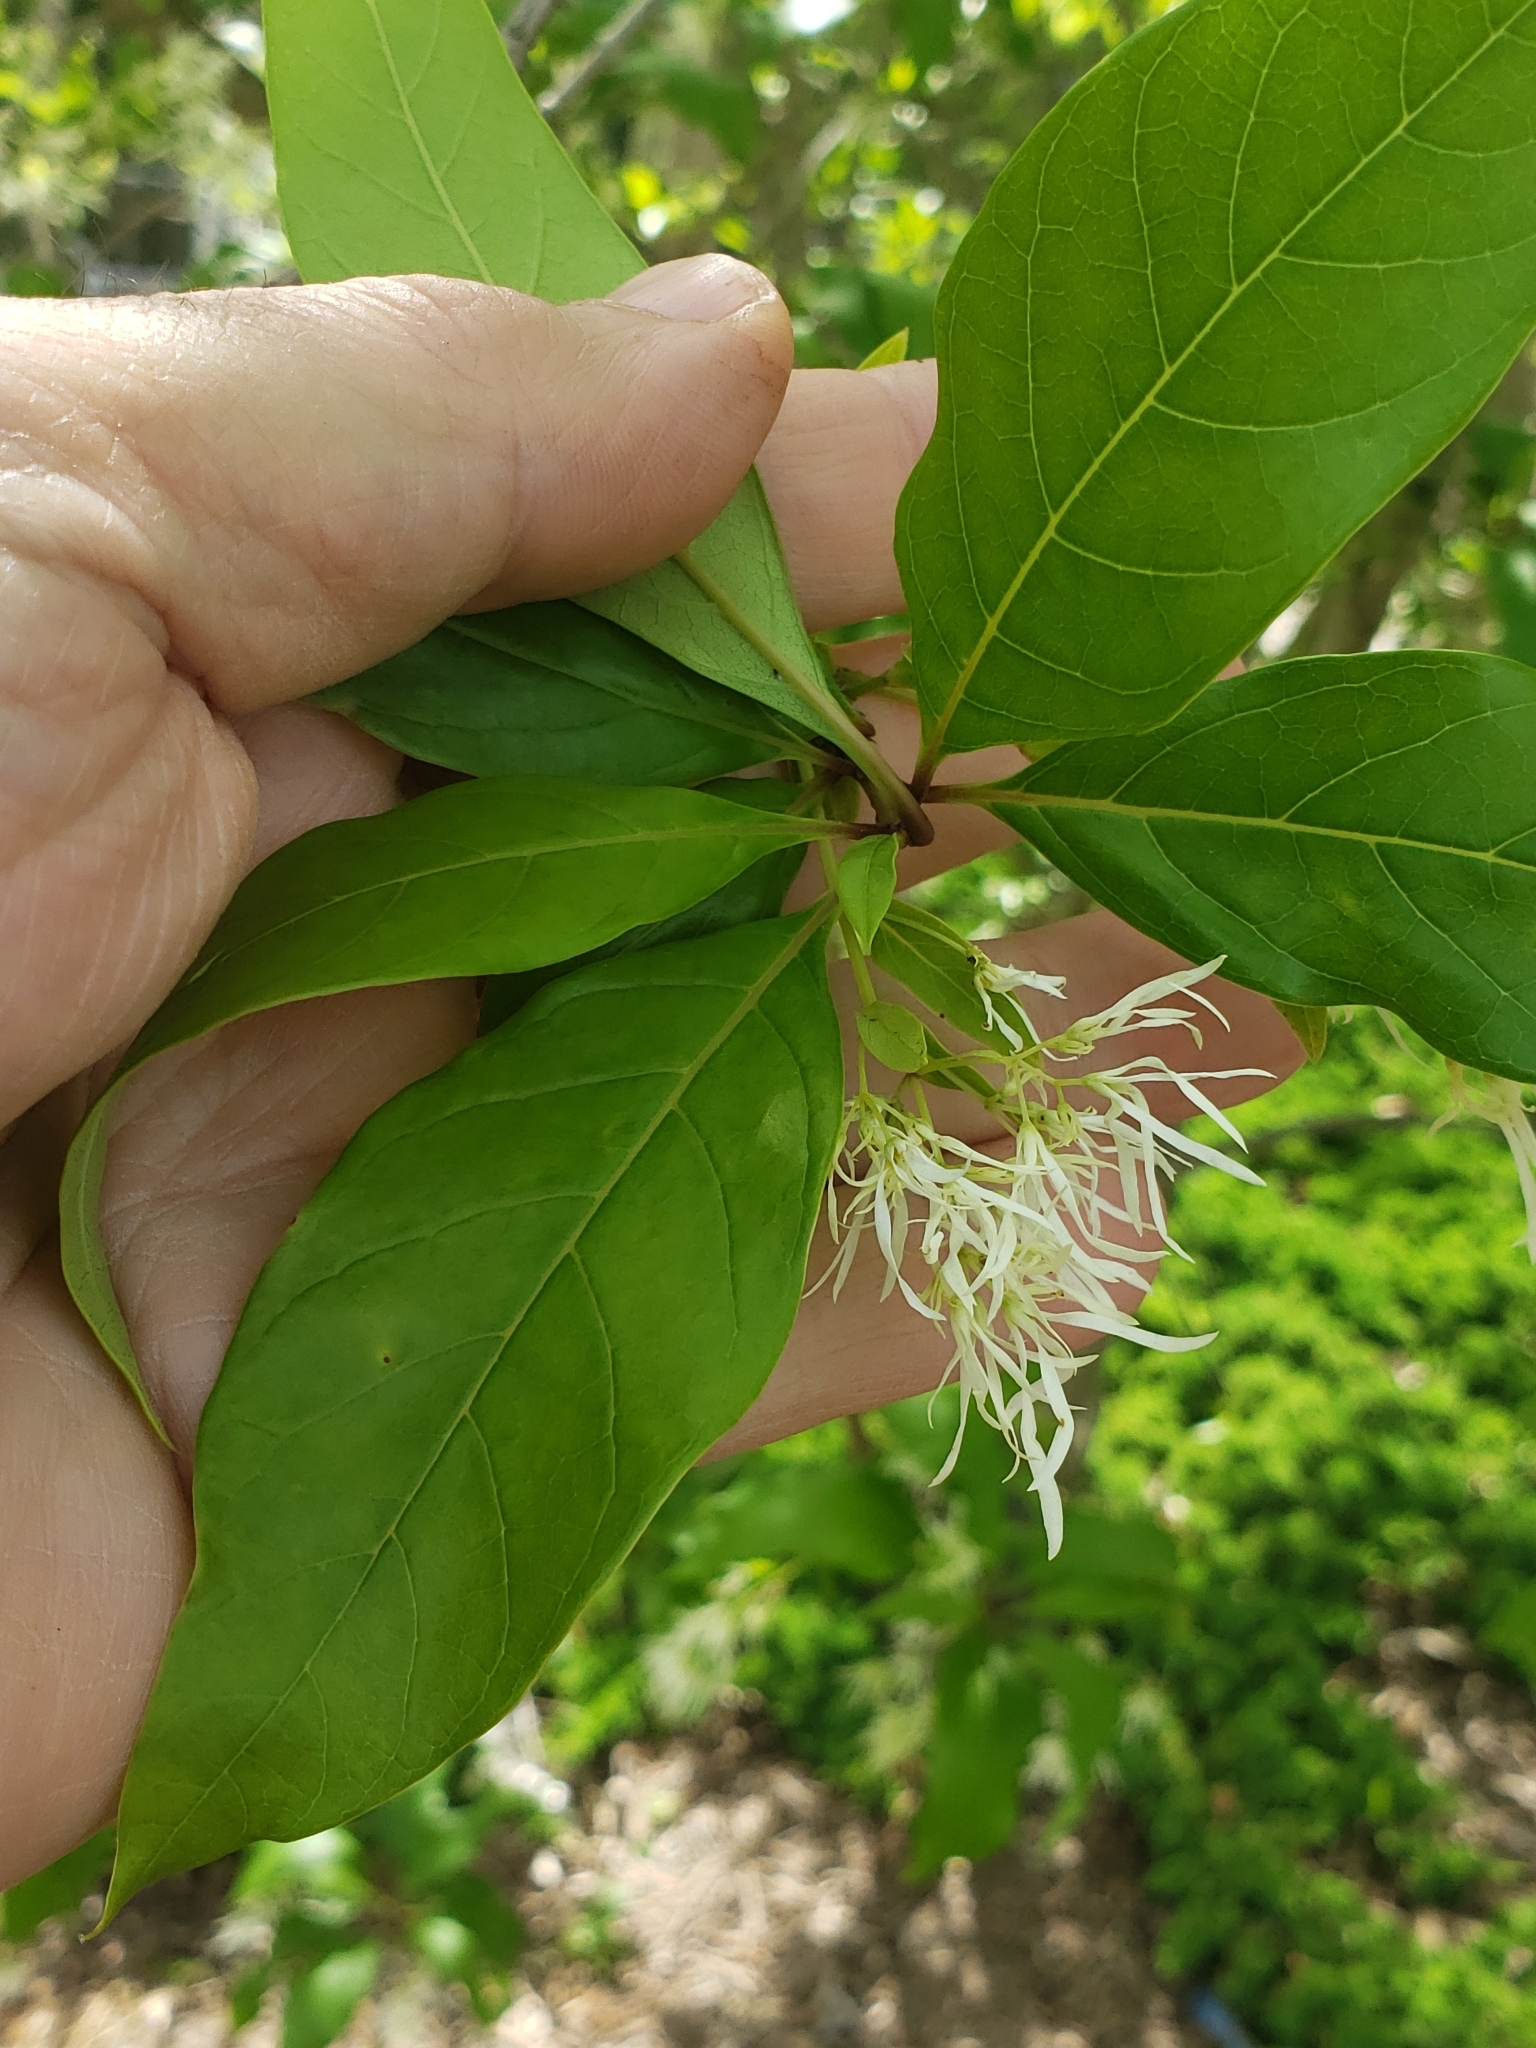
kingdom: Plantae
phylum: Tracheophyta
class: Magnoliopsida
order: Lamiales
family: Oleaceae
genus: Chionanthus
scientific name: Chionanthus virginicus
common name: American fringetree
